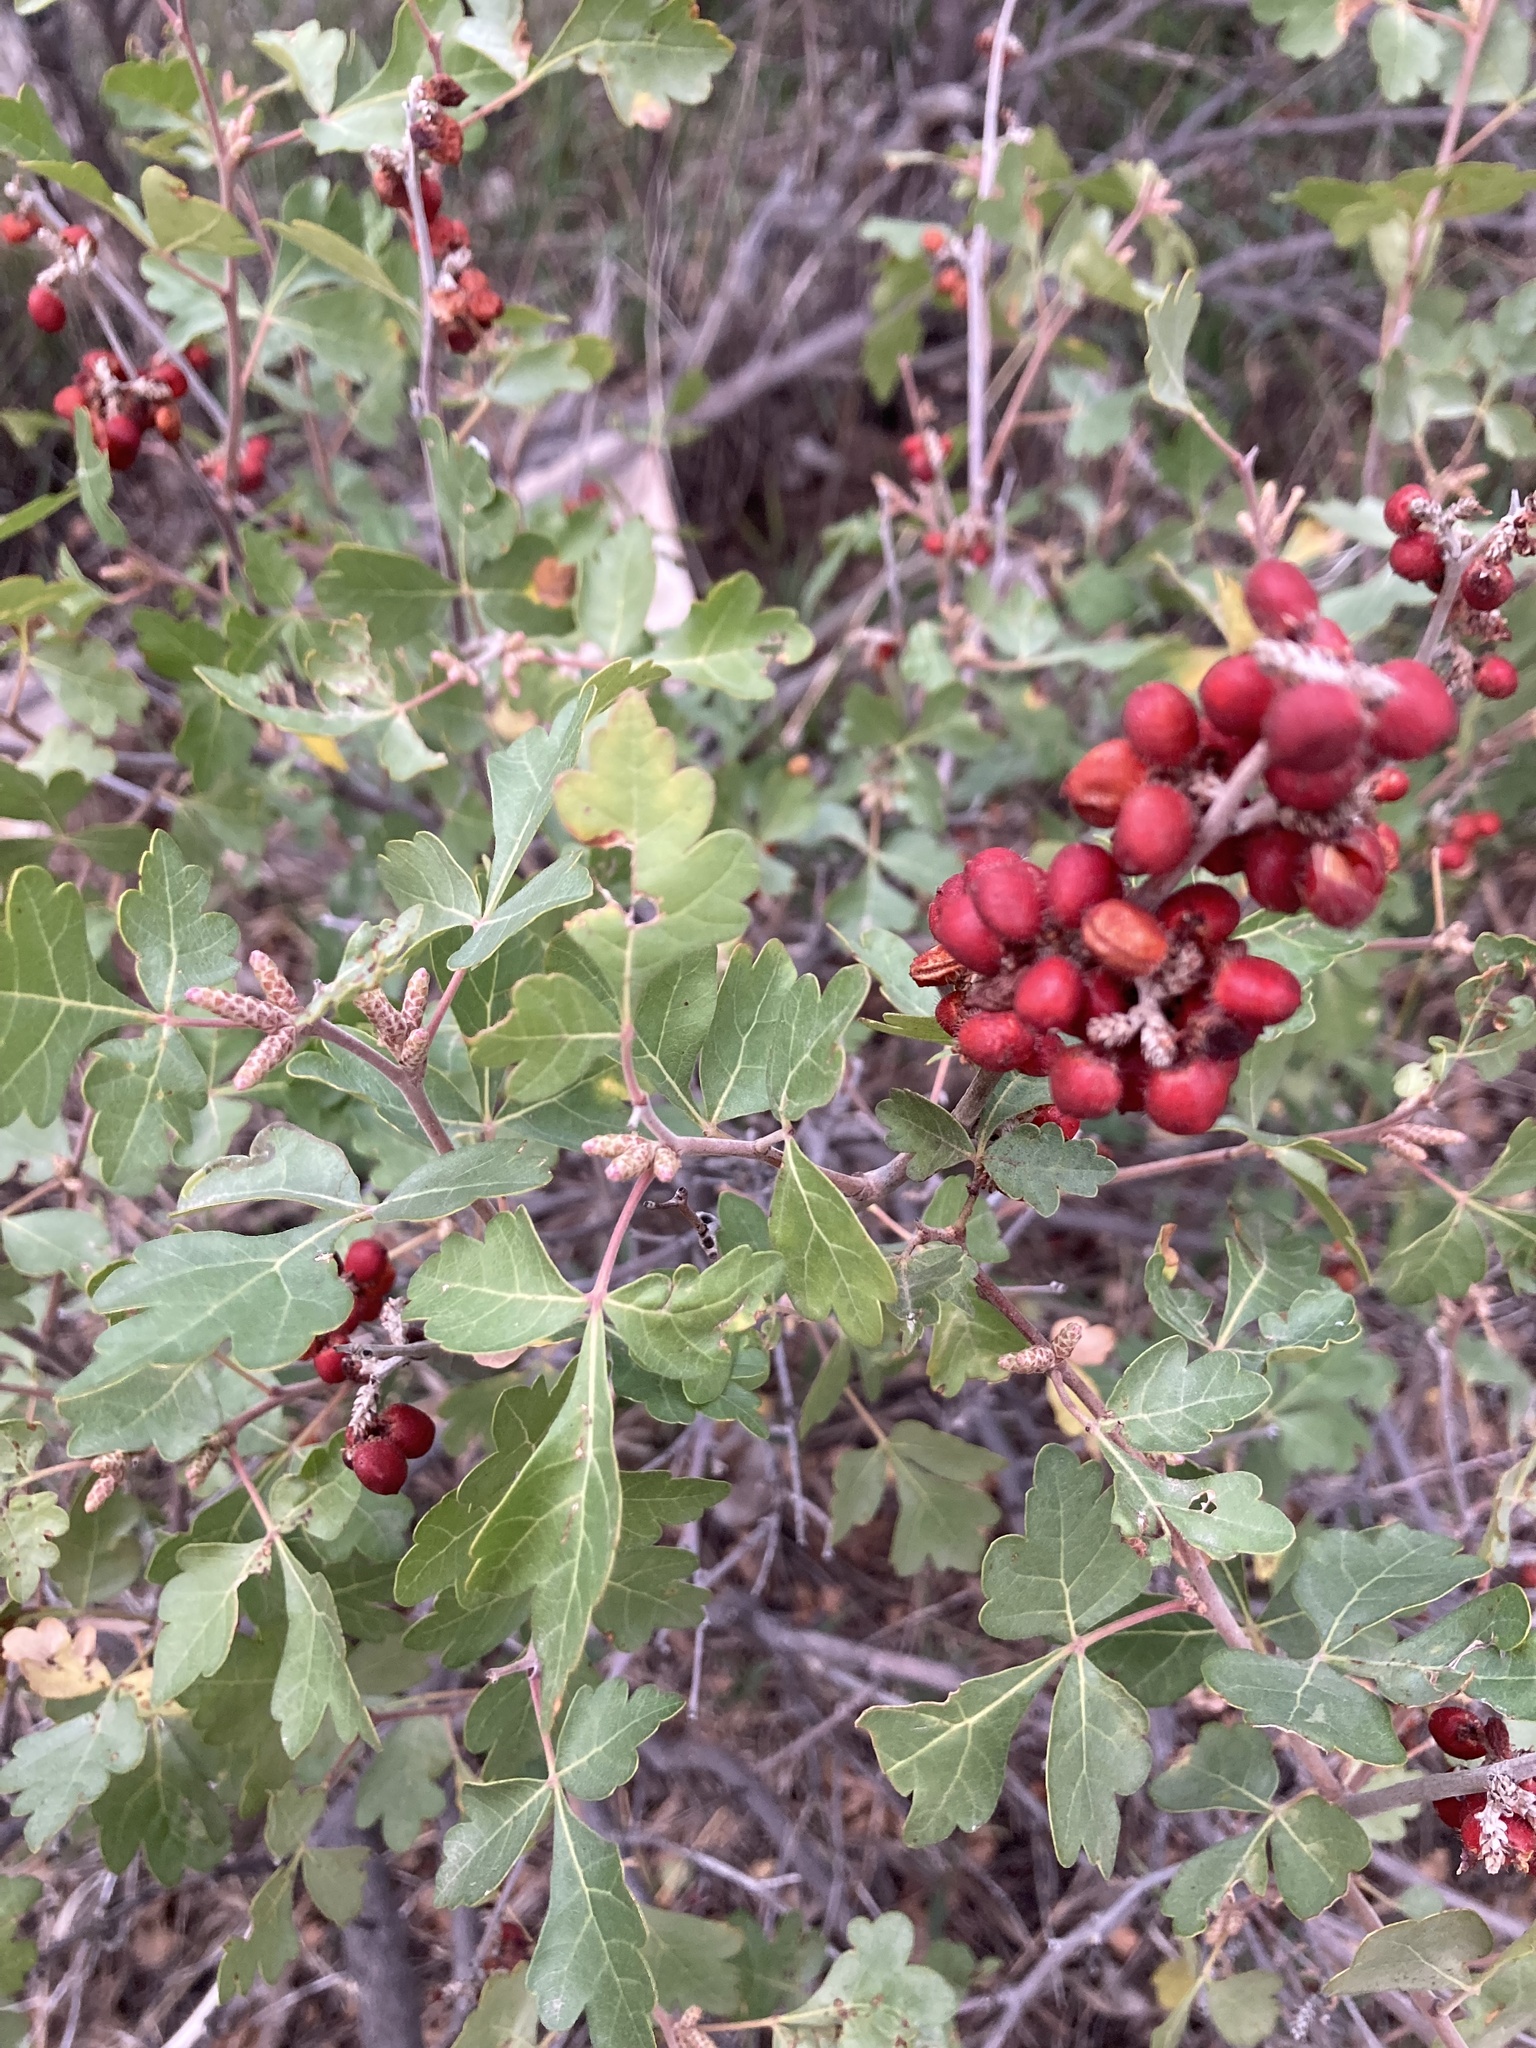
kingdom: Plantae
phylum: Tracheophyta
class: Magnoliopsida
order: Sapindales
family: Anacardiaceae
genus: Rhus
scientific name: Rhus trilobata
